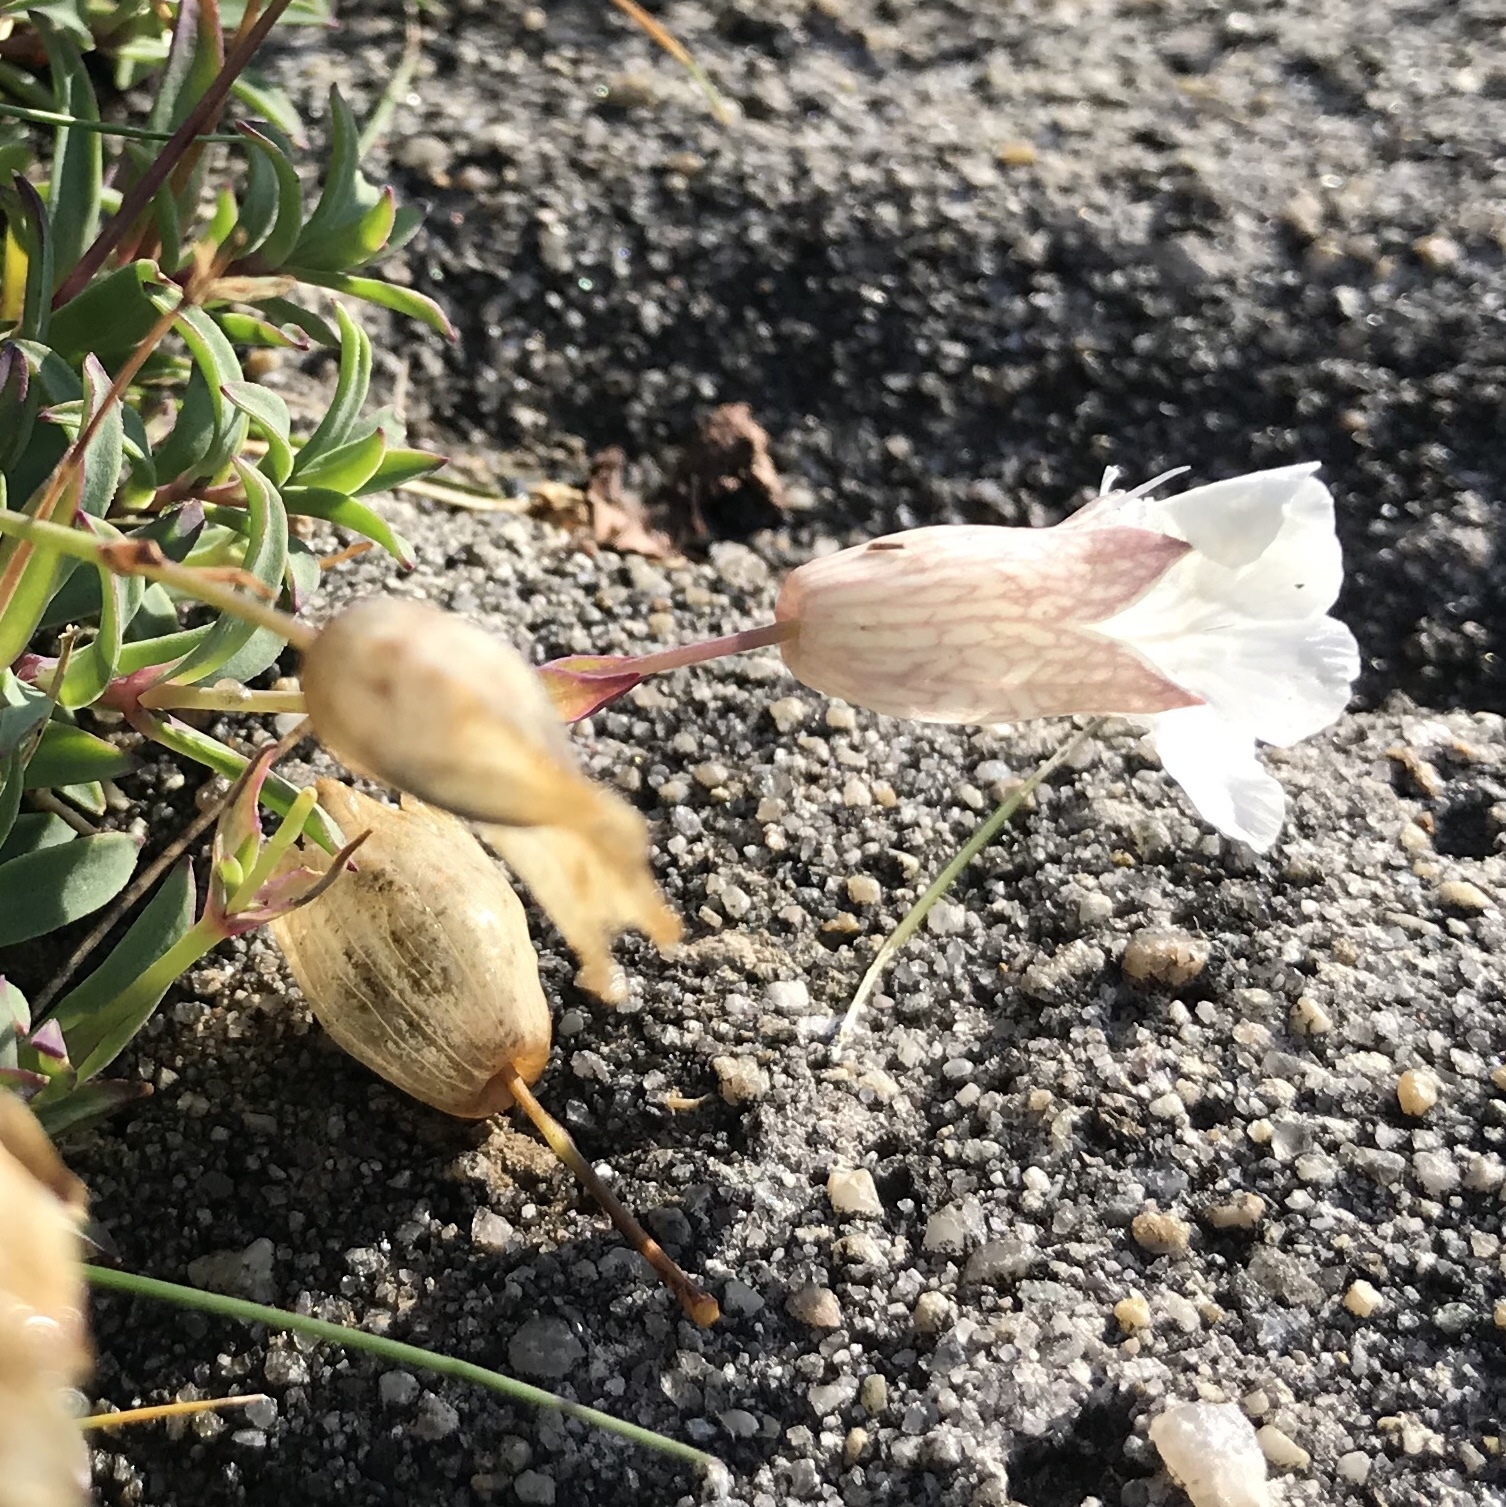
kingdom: Plantae
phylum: Tracheophyta
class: Magnoliopsida
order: Caryophyllales
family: Caryophyllaceae
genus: Silene
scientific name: Silene uniflora
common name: Sea campion
